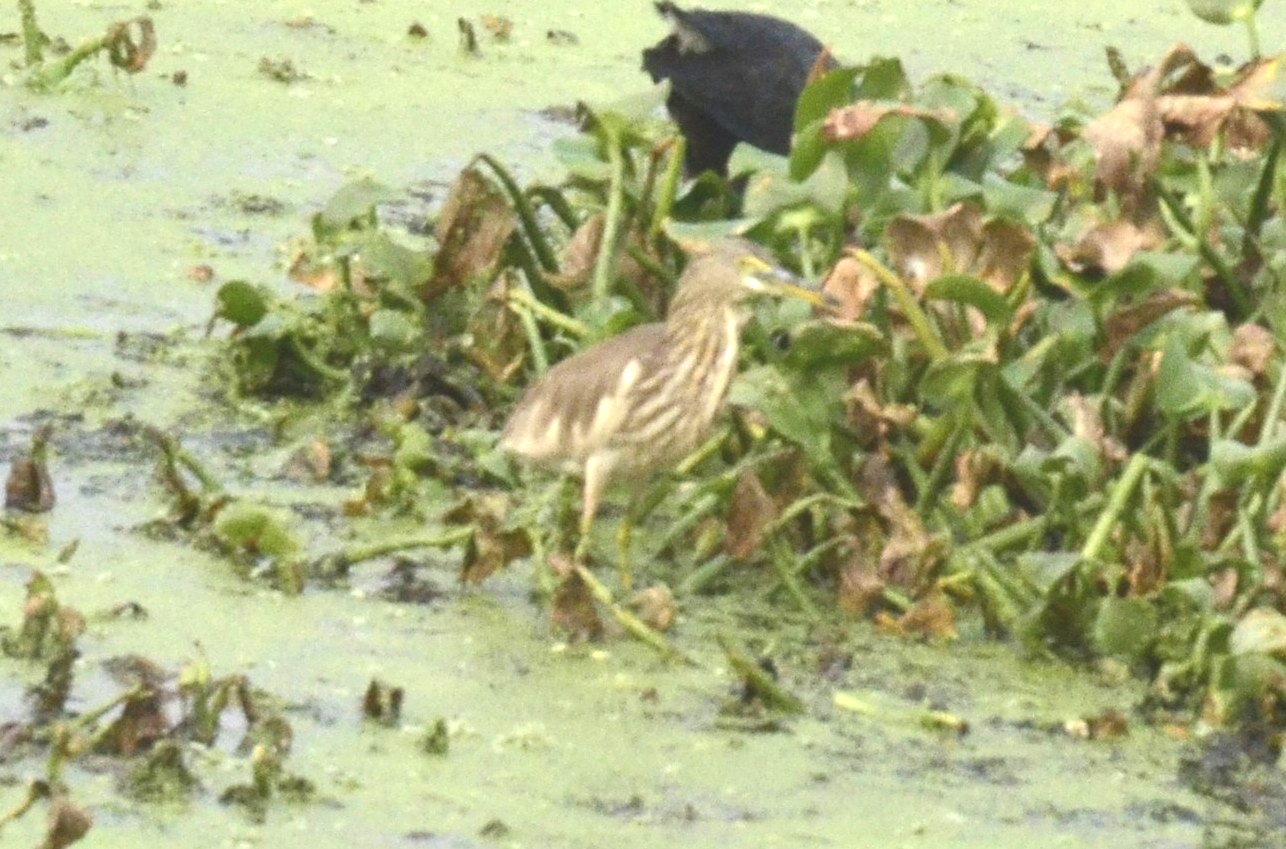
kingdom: Animalia
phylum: Chordata
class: Aves
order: Pelecaniformes
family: Ardeidae
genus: Ardeola
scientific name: Ardeola grayii
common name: Indian pond heron
